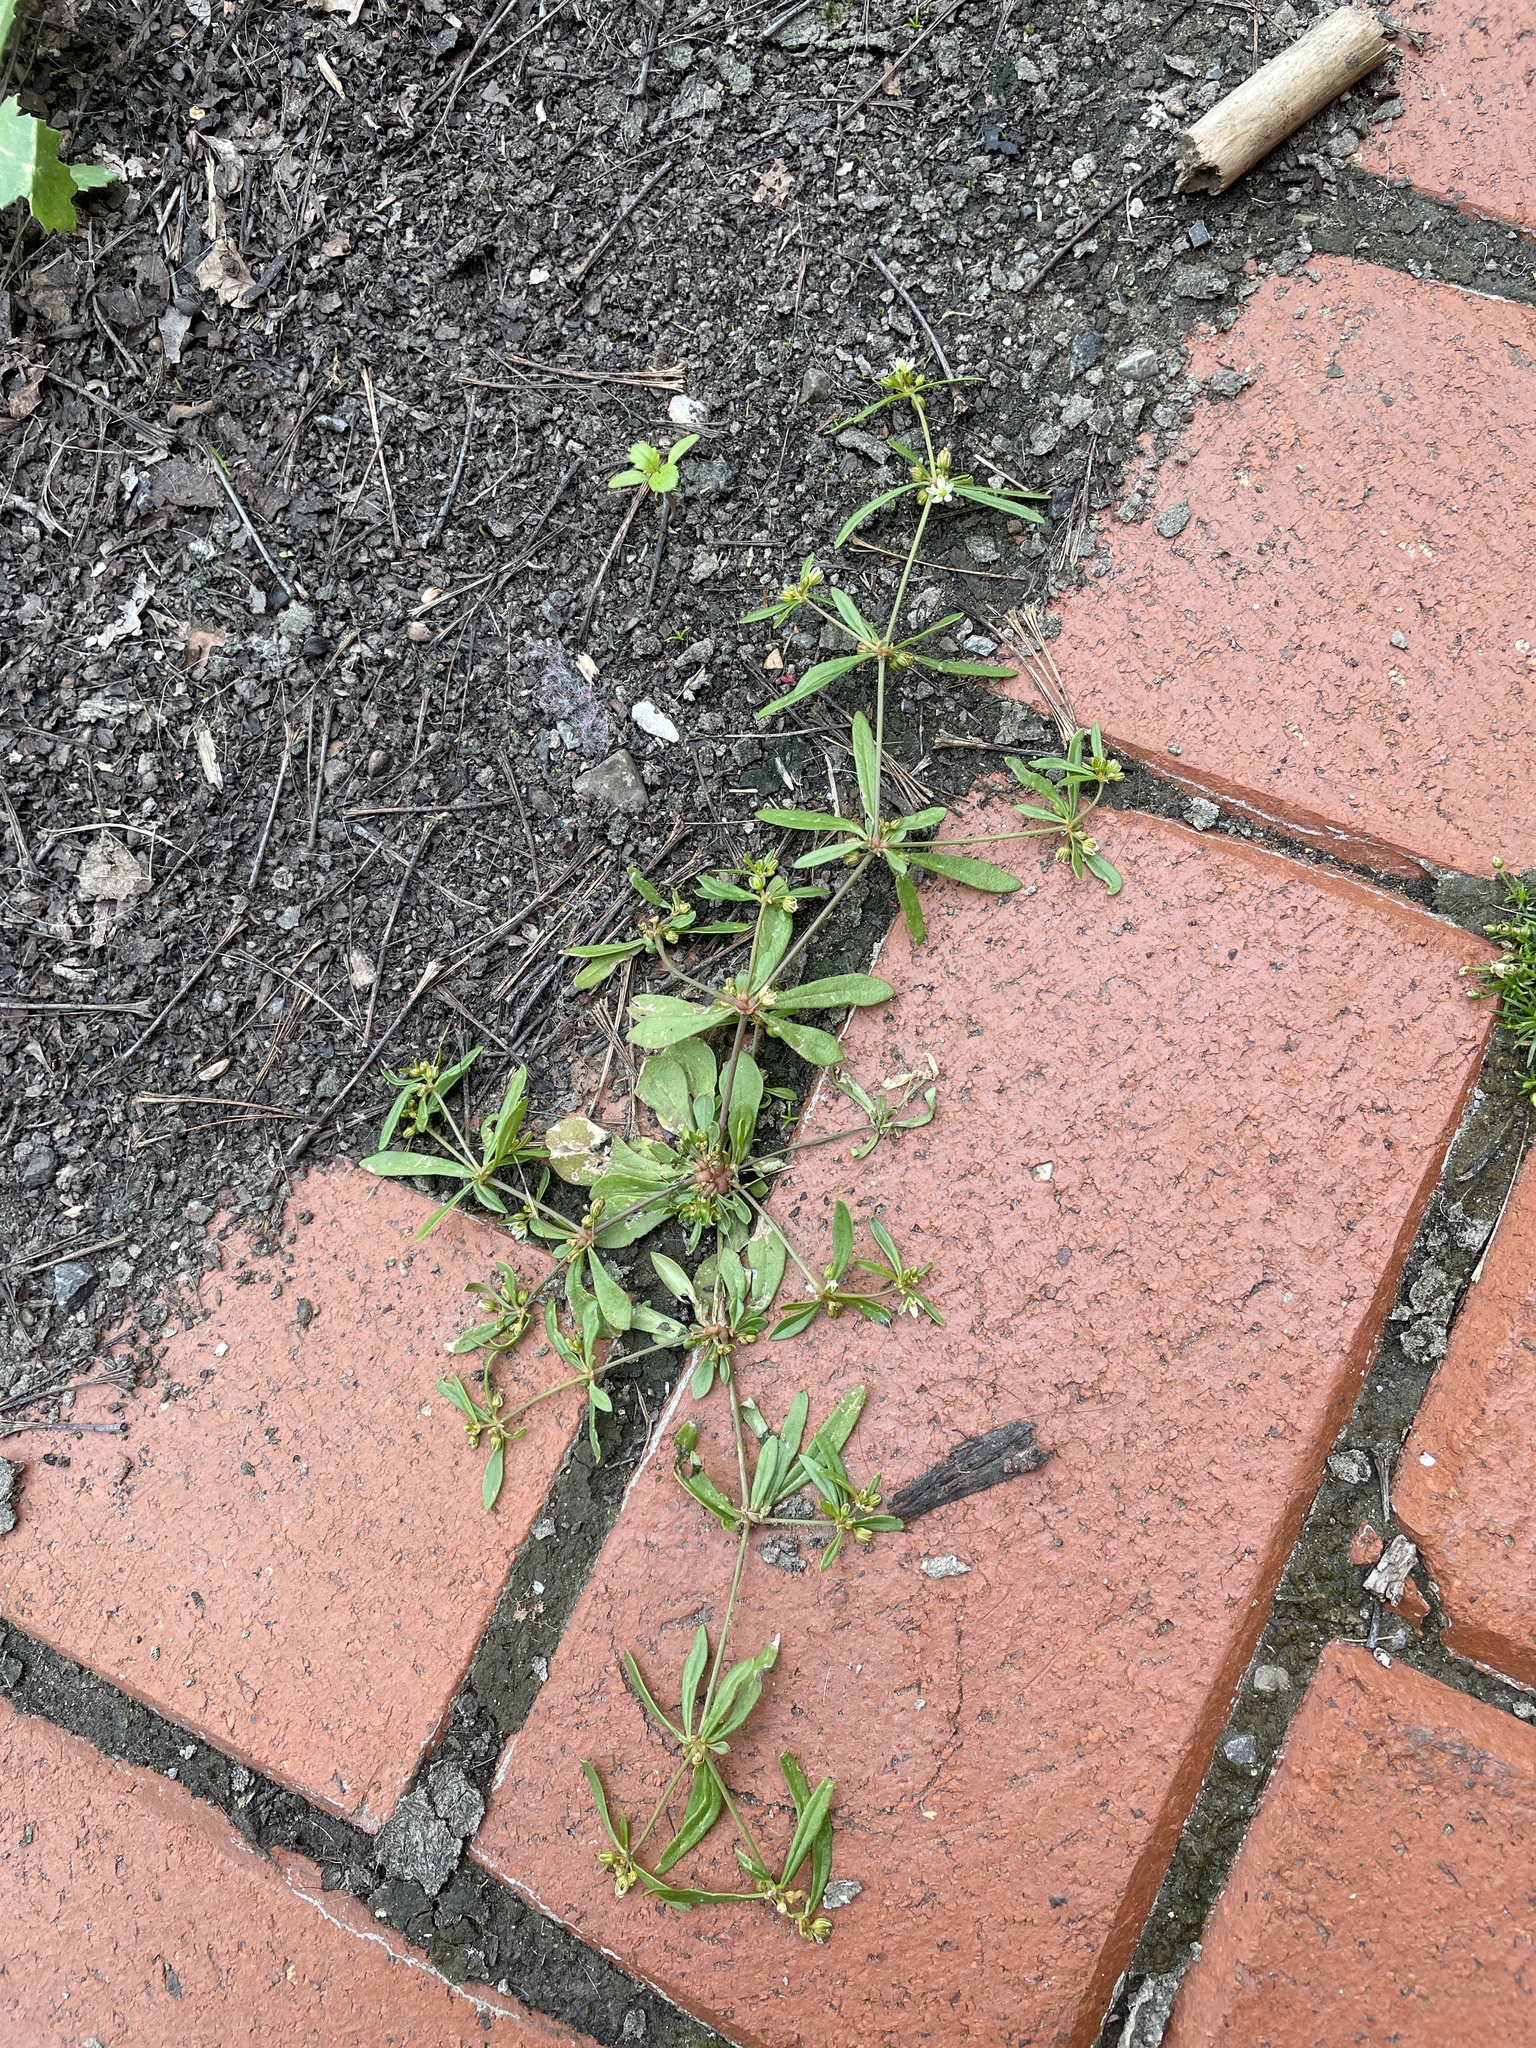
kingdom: Plantae
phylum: Tracheophyta
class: Magnoliopsida
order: Caryophyllales
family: Molluginaceae
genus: Mollugo
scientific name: Mollugo verticillata
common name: Green carpetweed
